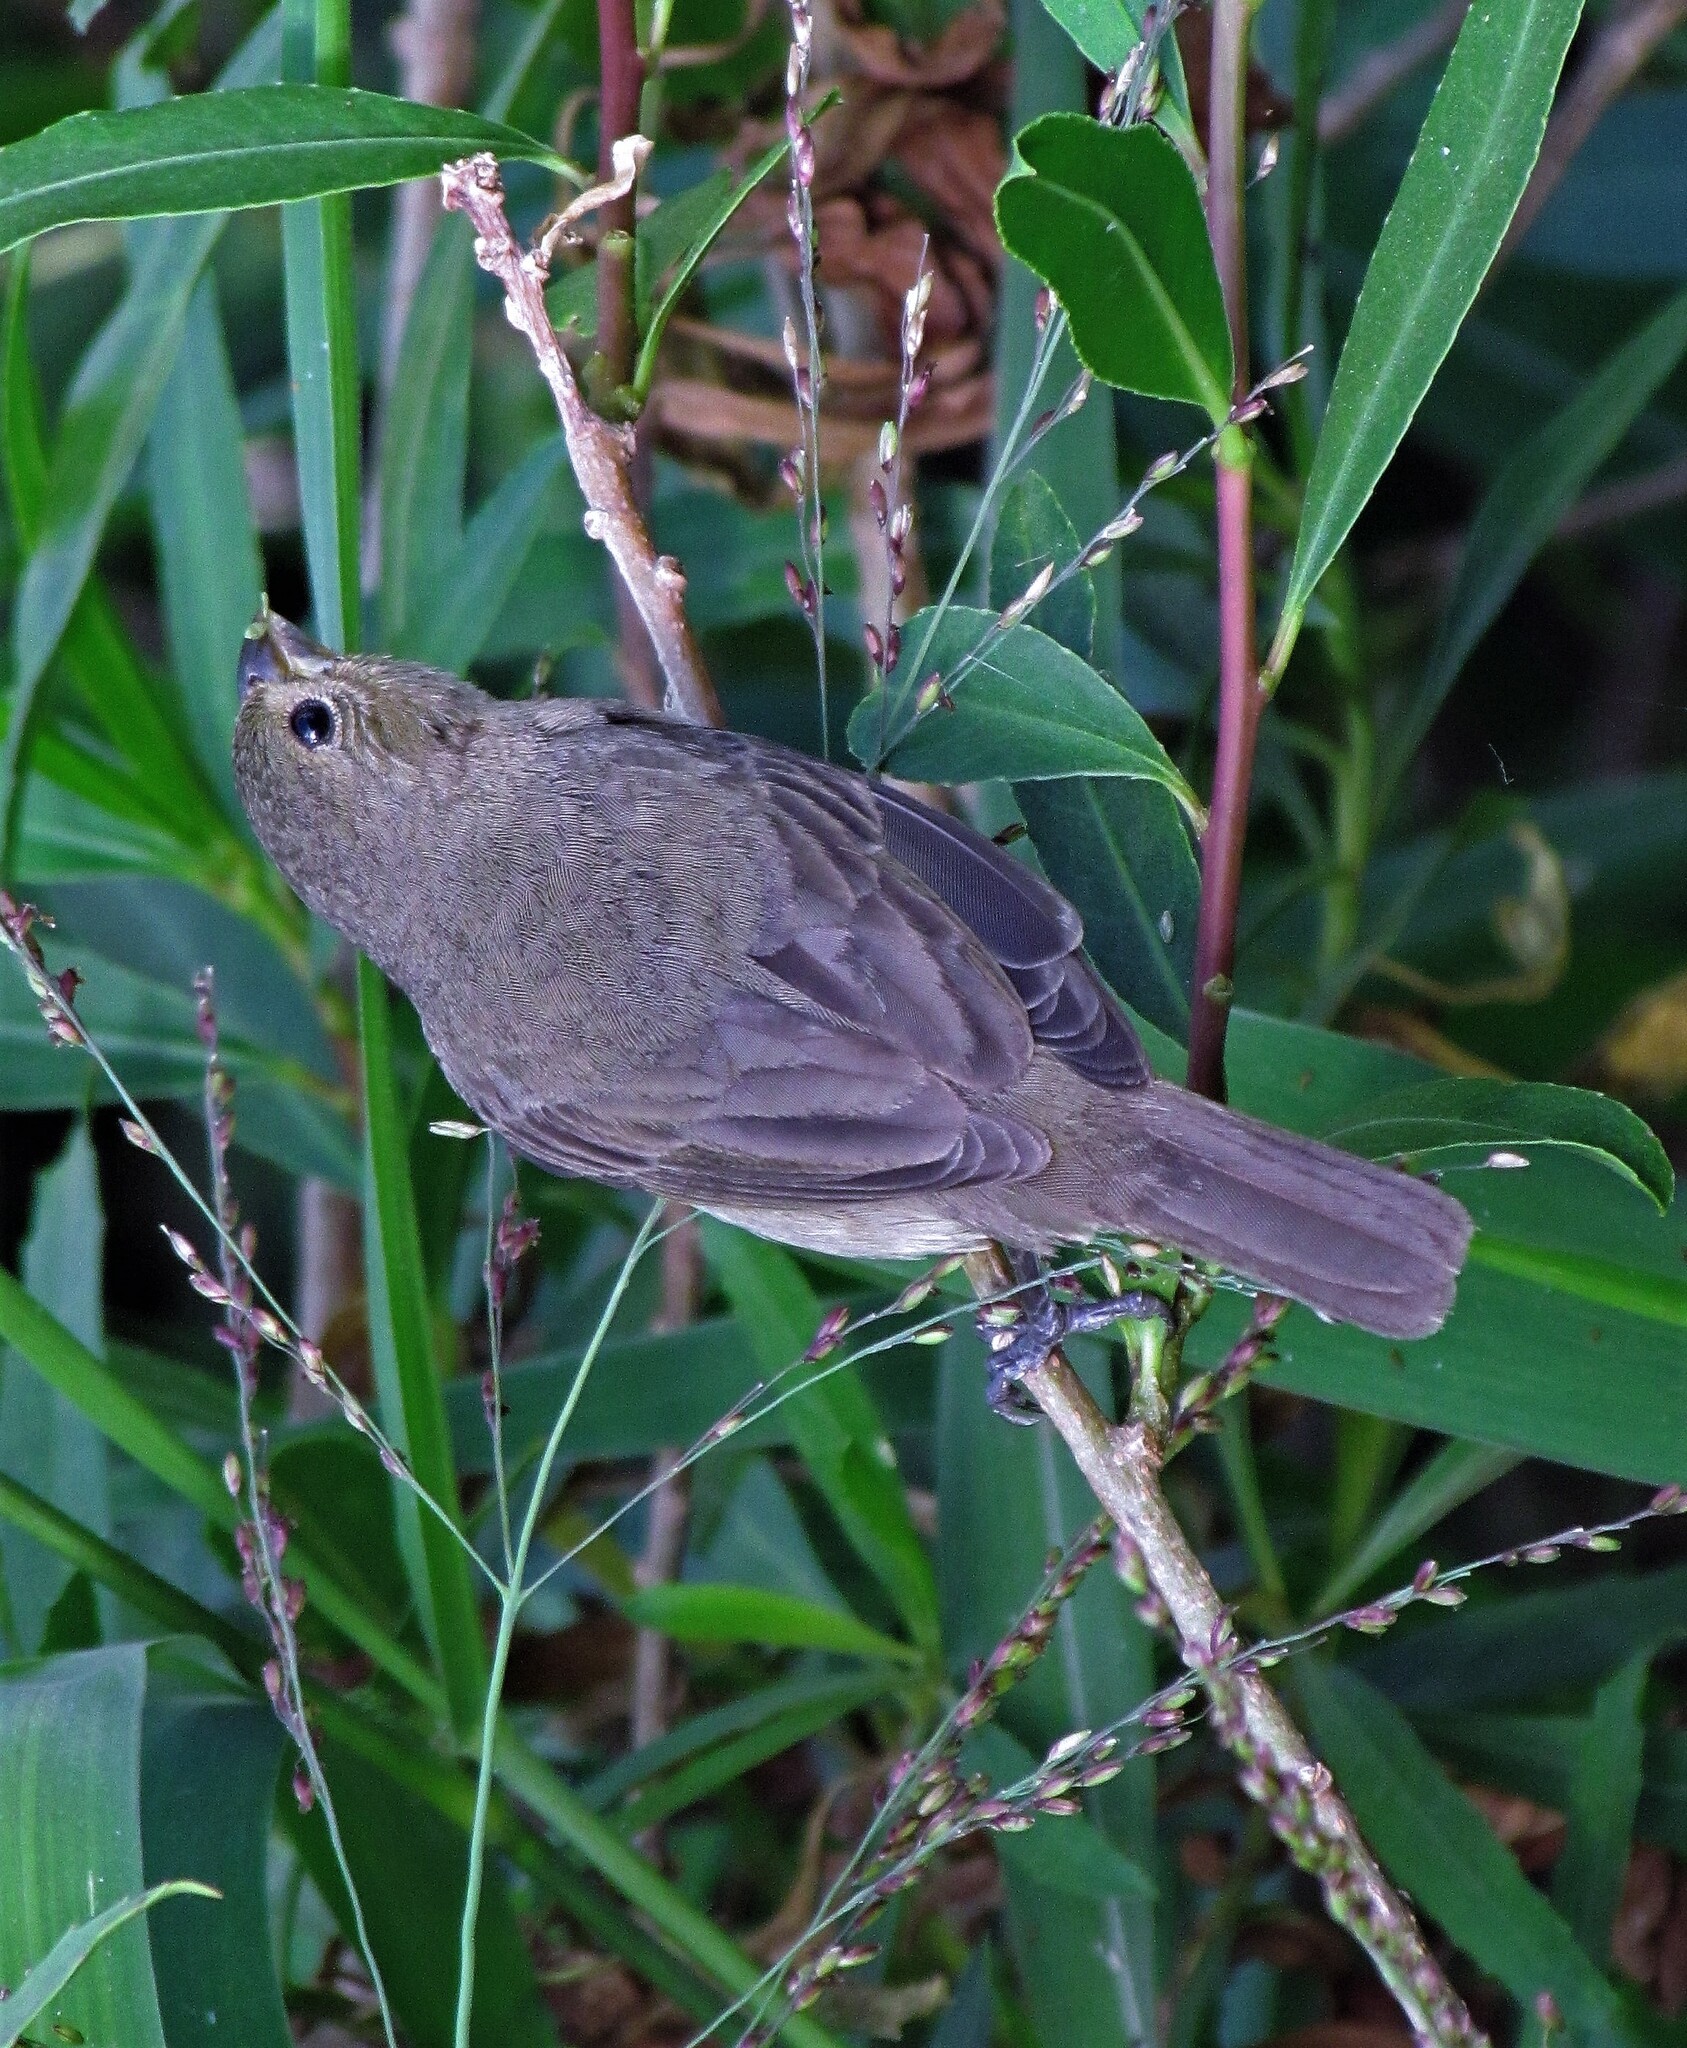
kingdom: Animalia
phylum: Chordata
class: Aves
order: Passeriformes
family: Thraupidae
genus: Sporophila
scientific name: Sporophila caerulescens
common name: Double-collared seedeater
